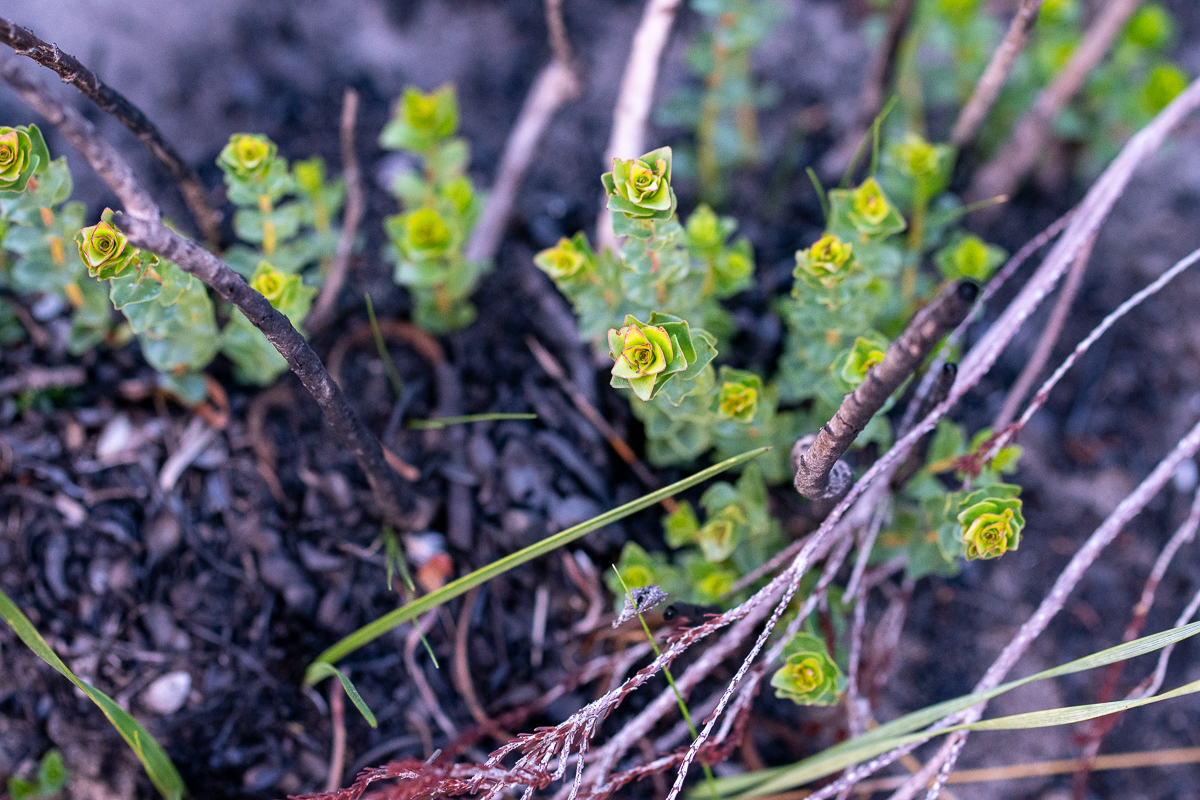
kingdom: Plantae
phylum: Tracheophyta
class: Magnoliopsida
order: Myrtales
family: Penaeaceae
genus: Penaea
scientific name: Penaea mucronata
